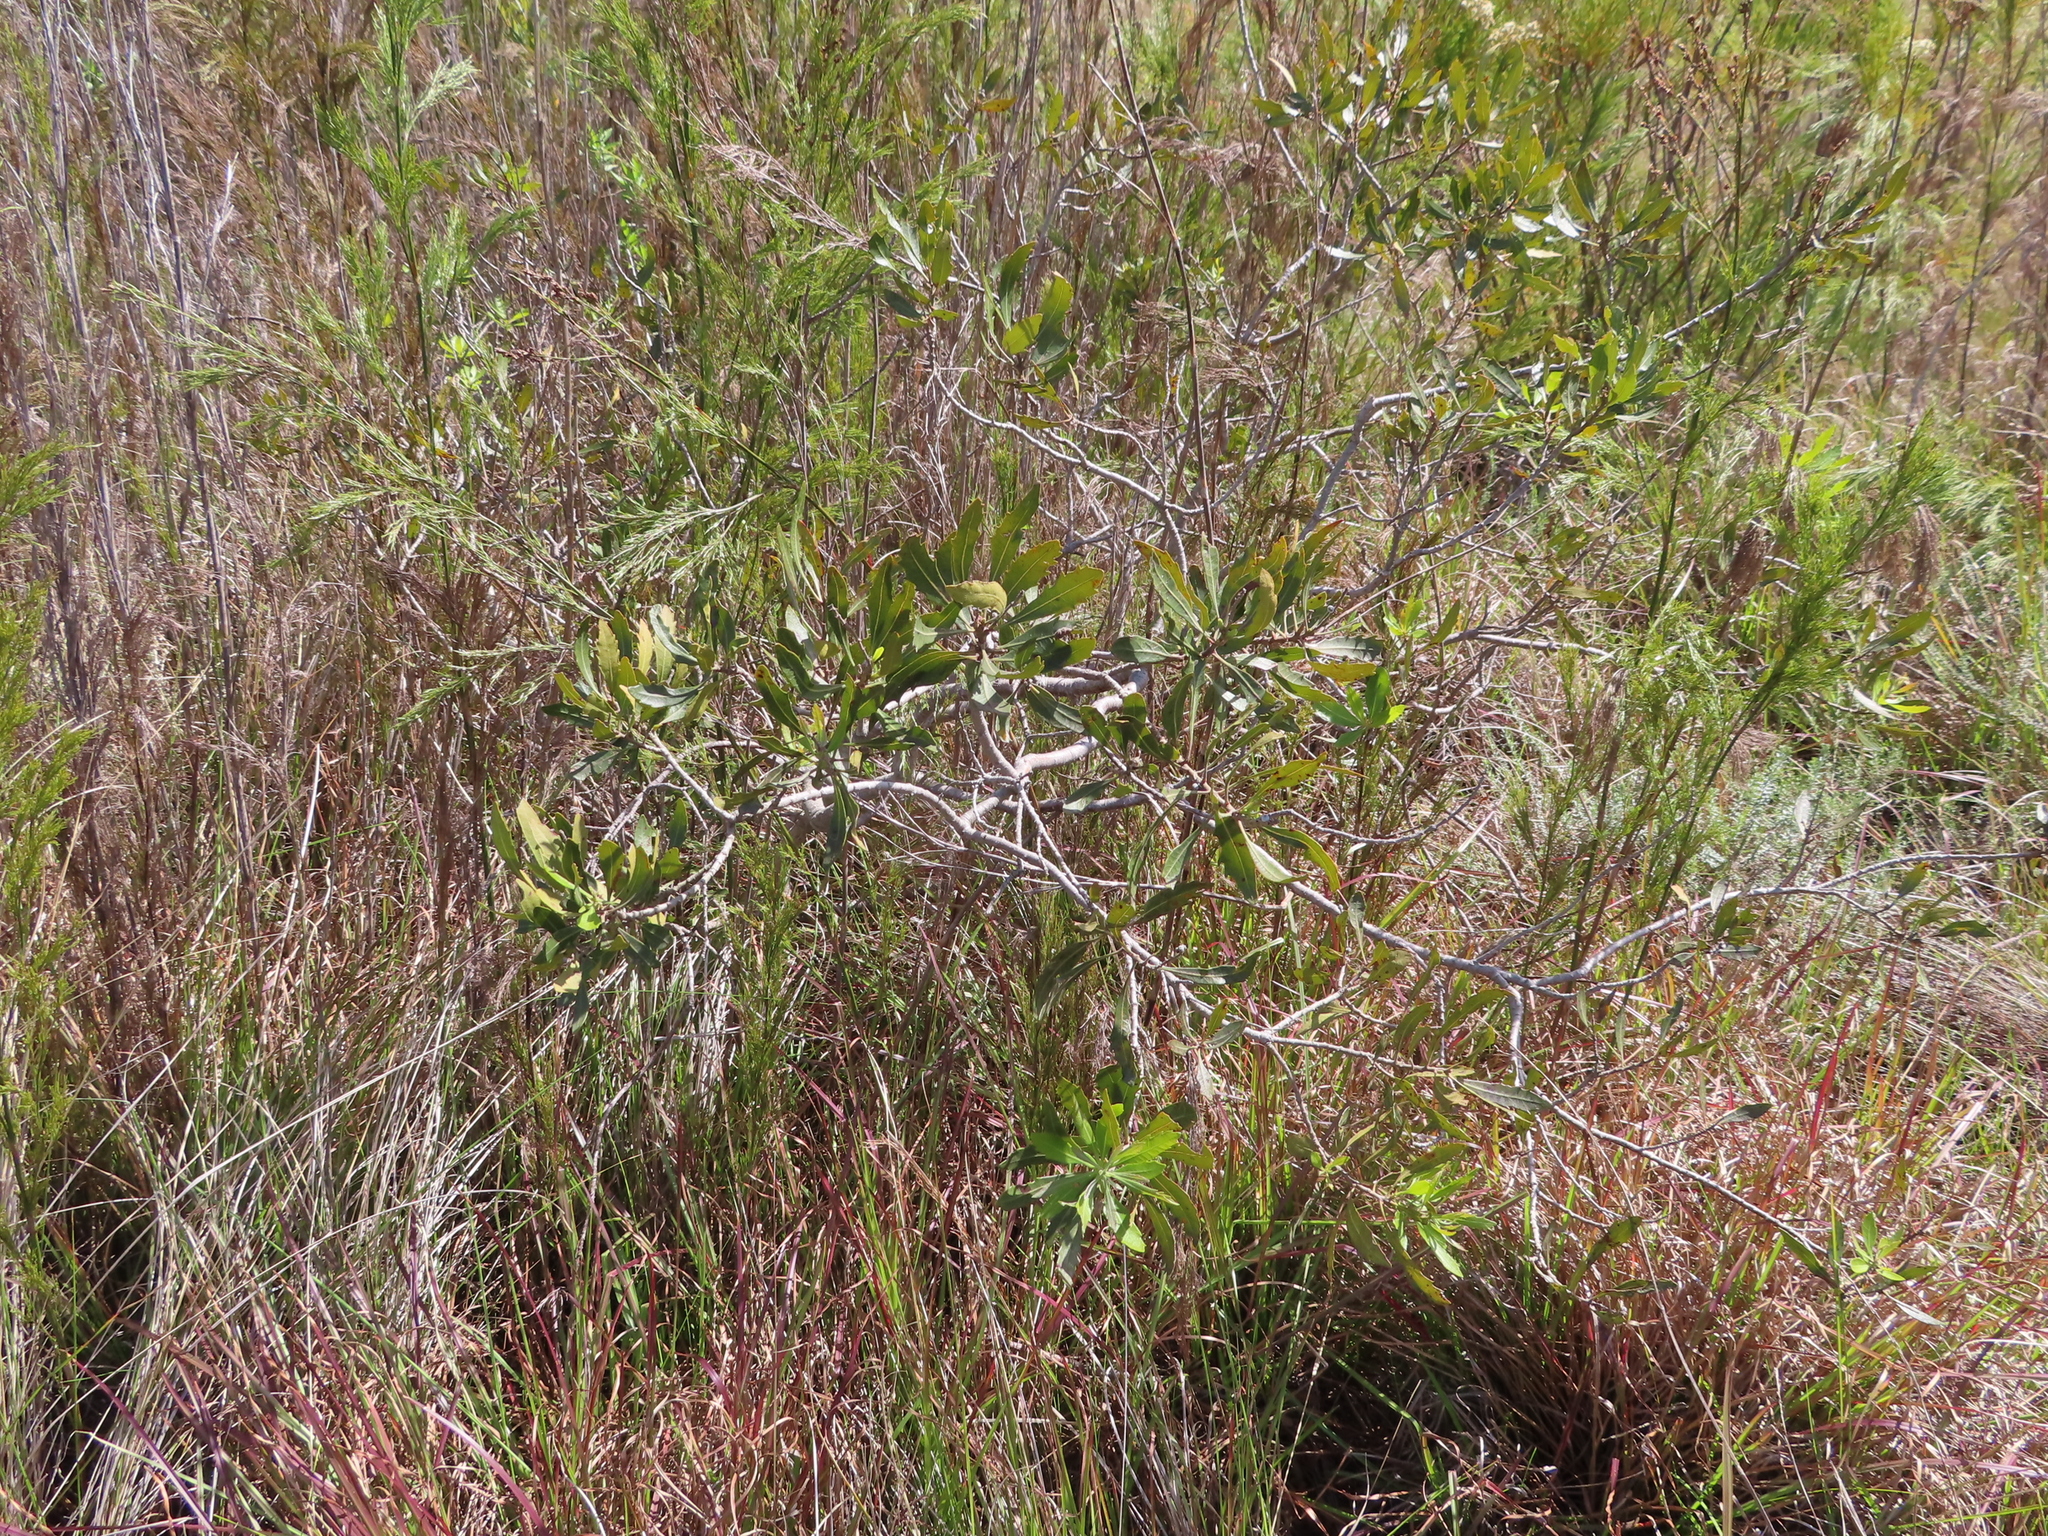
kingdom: Plantae
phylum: Tracheophyta
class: Magnoliopsida
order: Fagales
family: Myricaceae
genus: Morella
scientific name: Morella serrata
